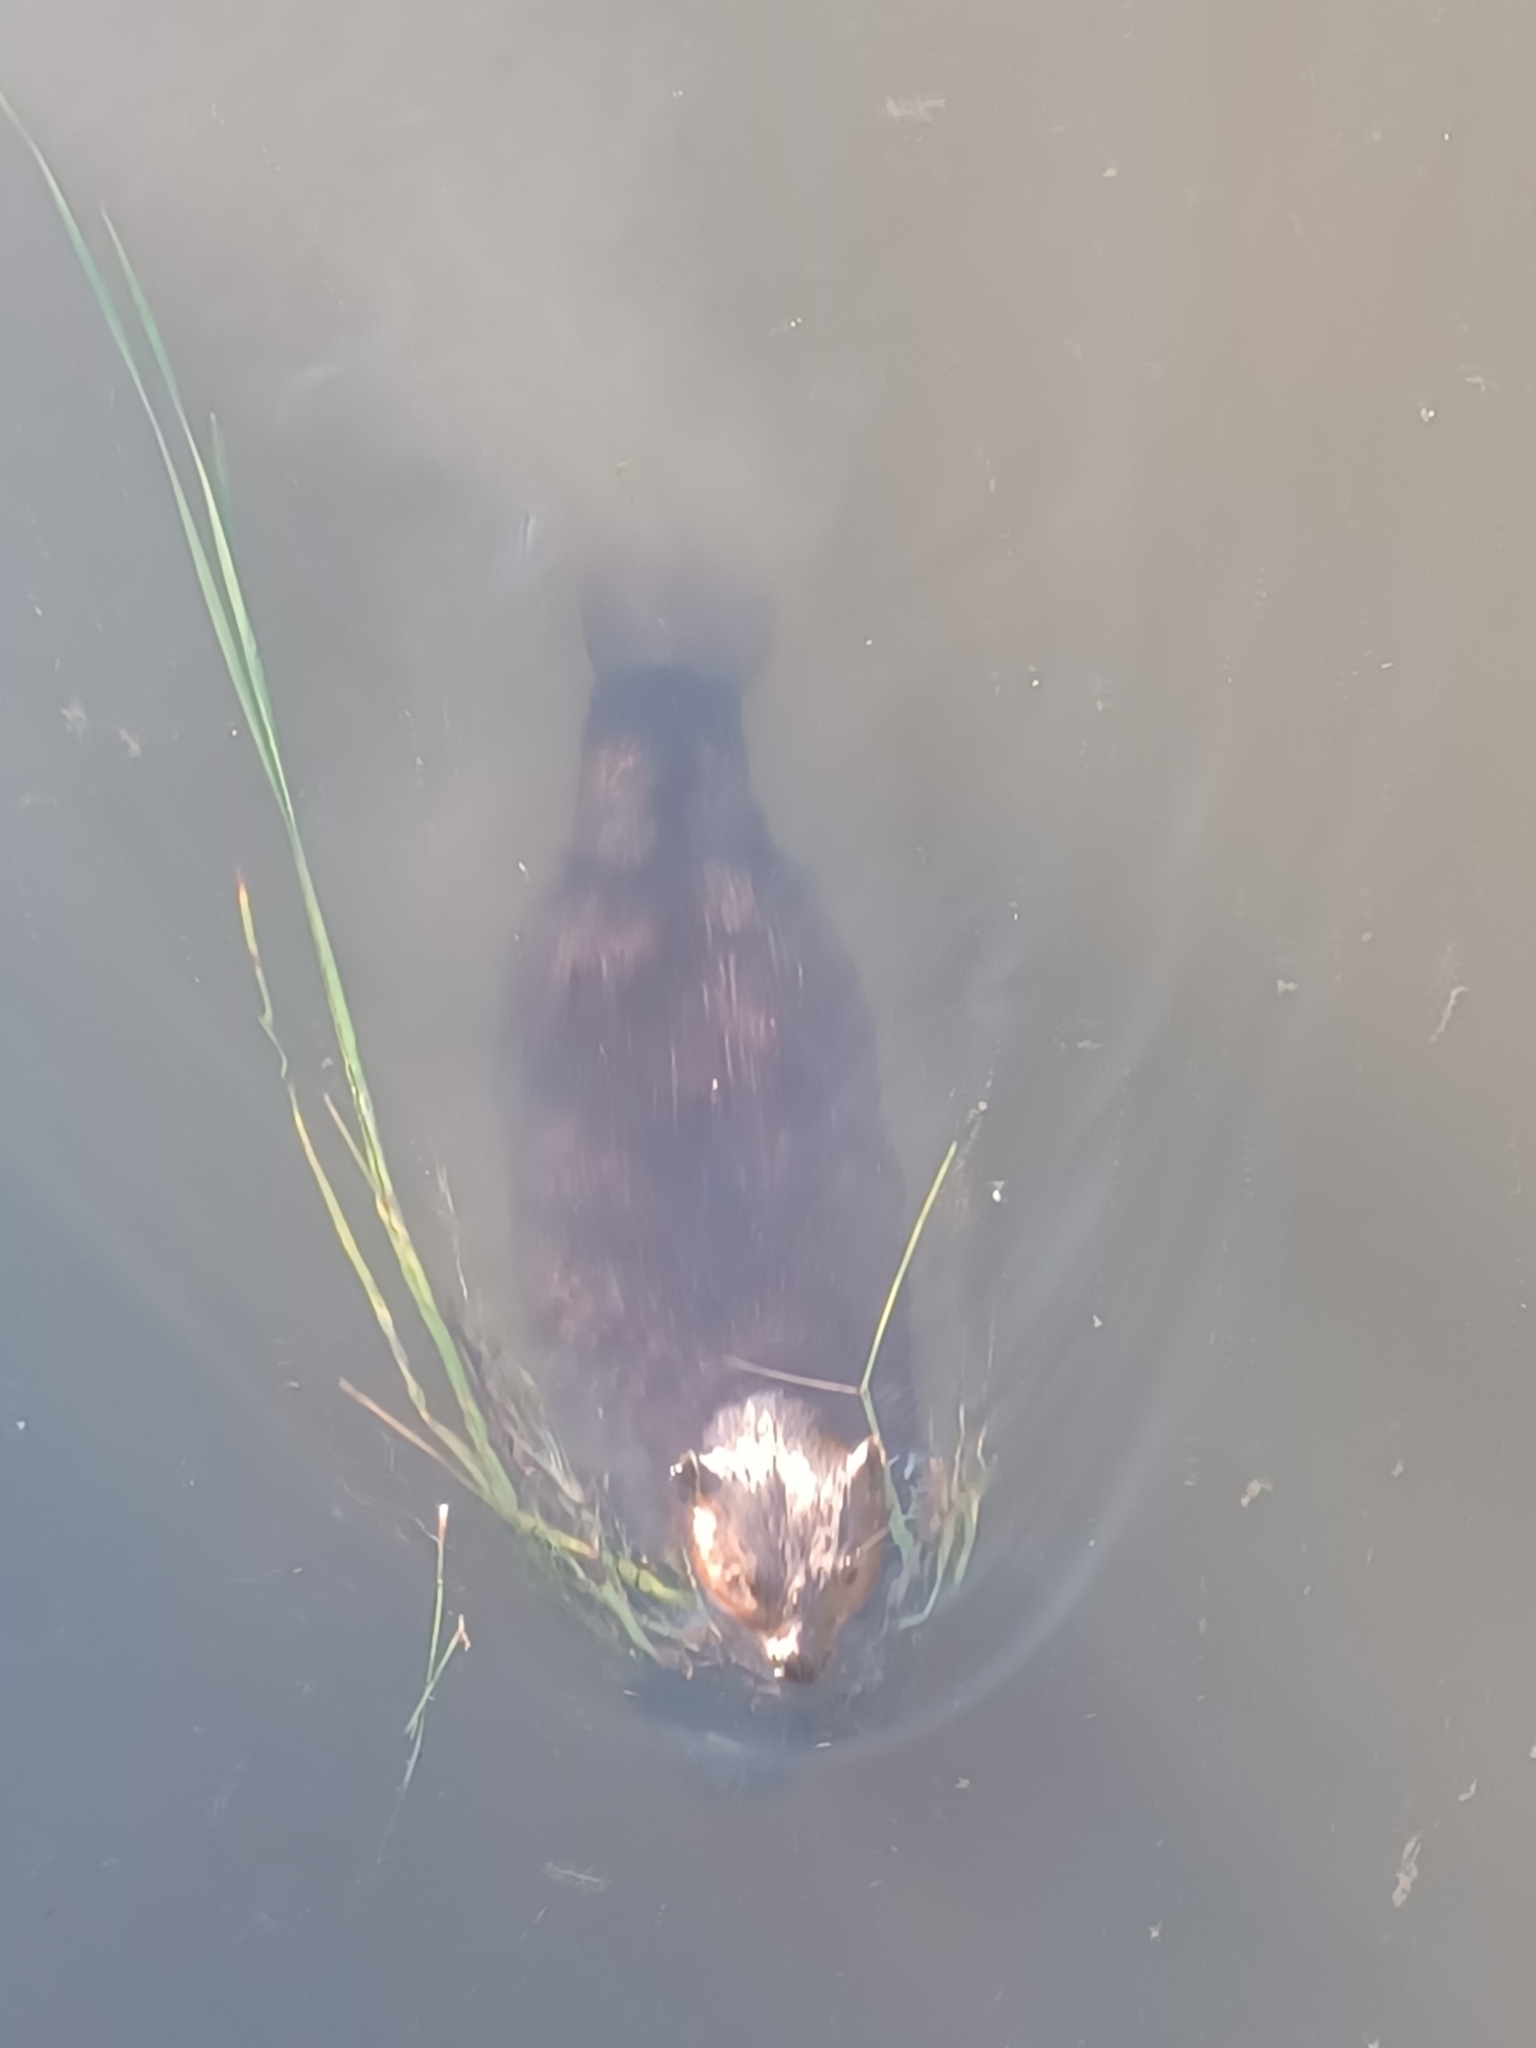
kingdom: Animalia
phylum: Chordata
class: Mammalia
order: Rodentia
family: Castoridae
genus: Castor
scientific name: Castor canadensis
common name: American beaver
